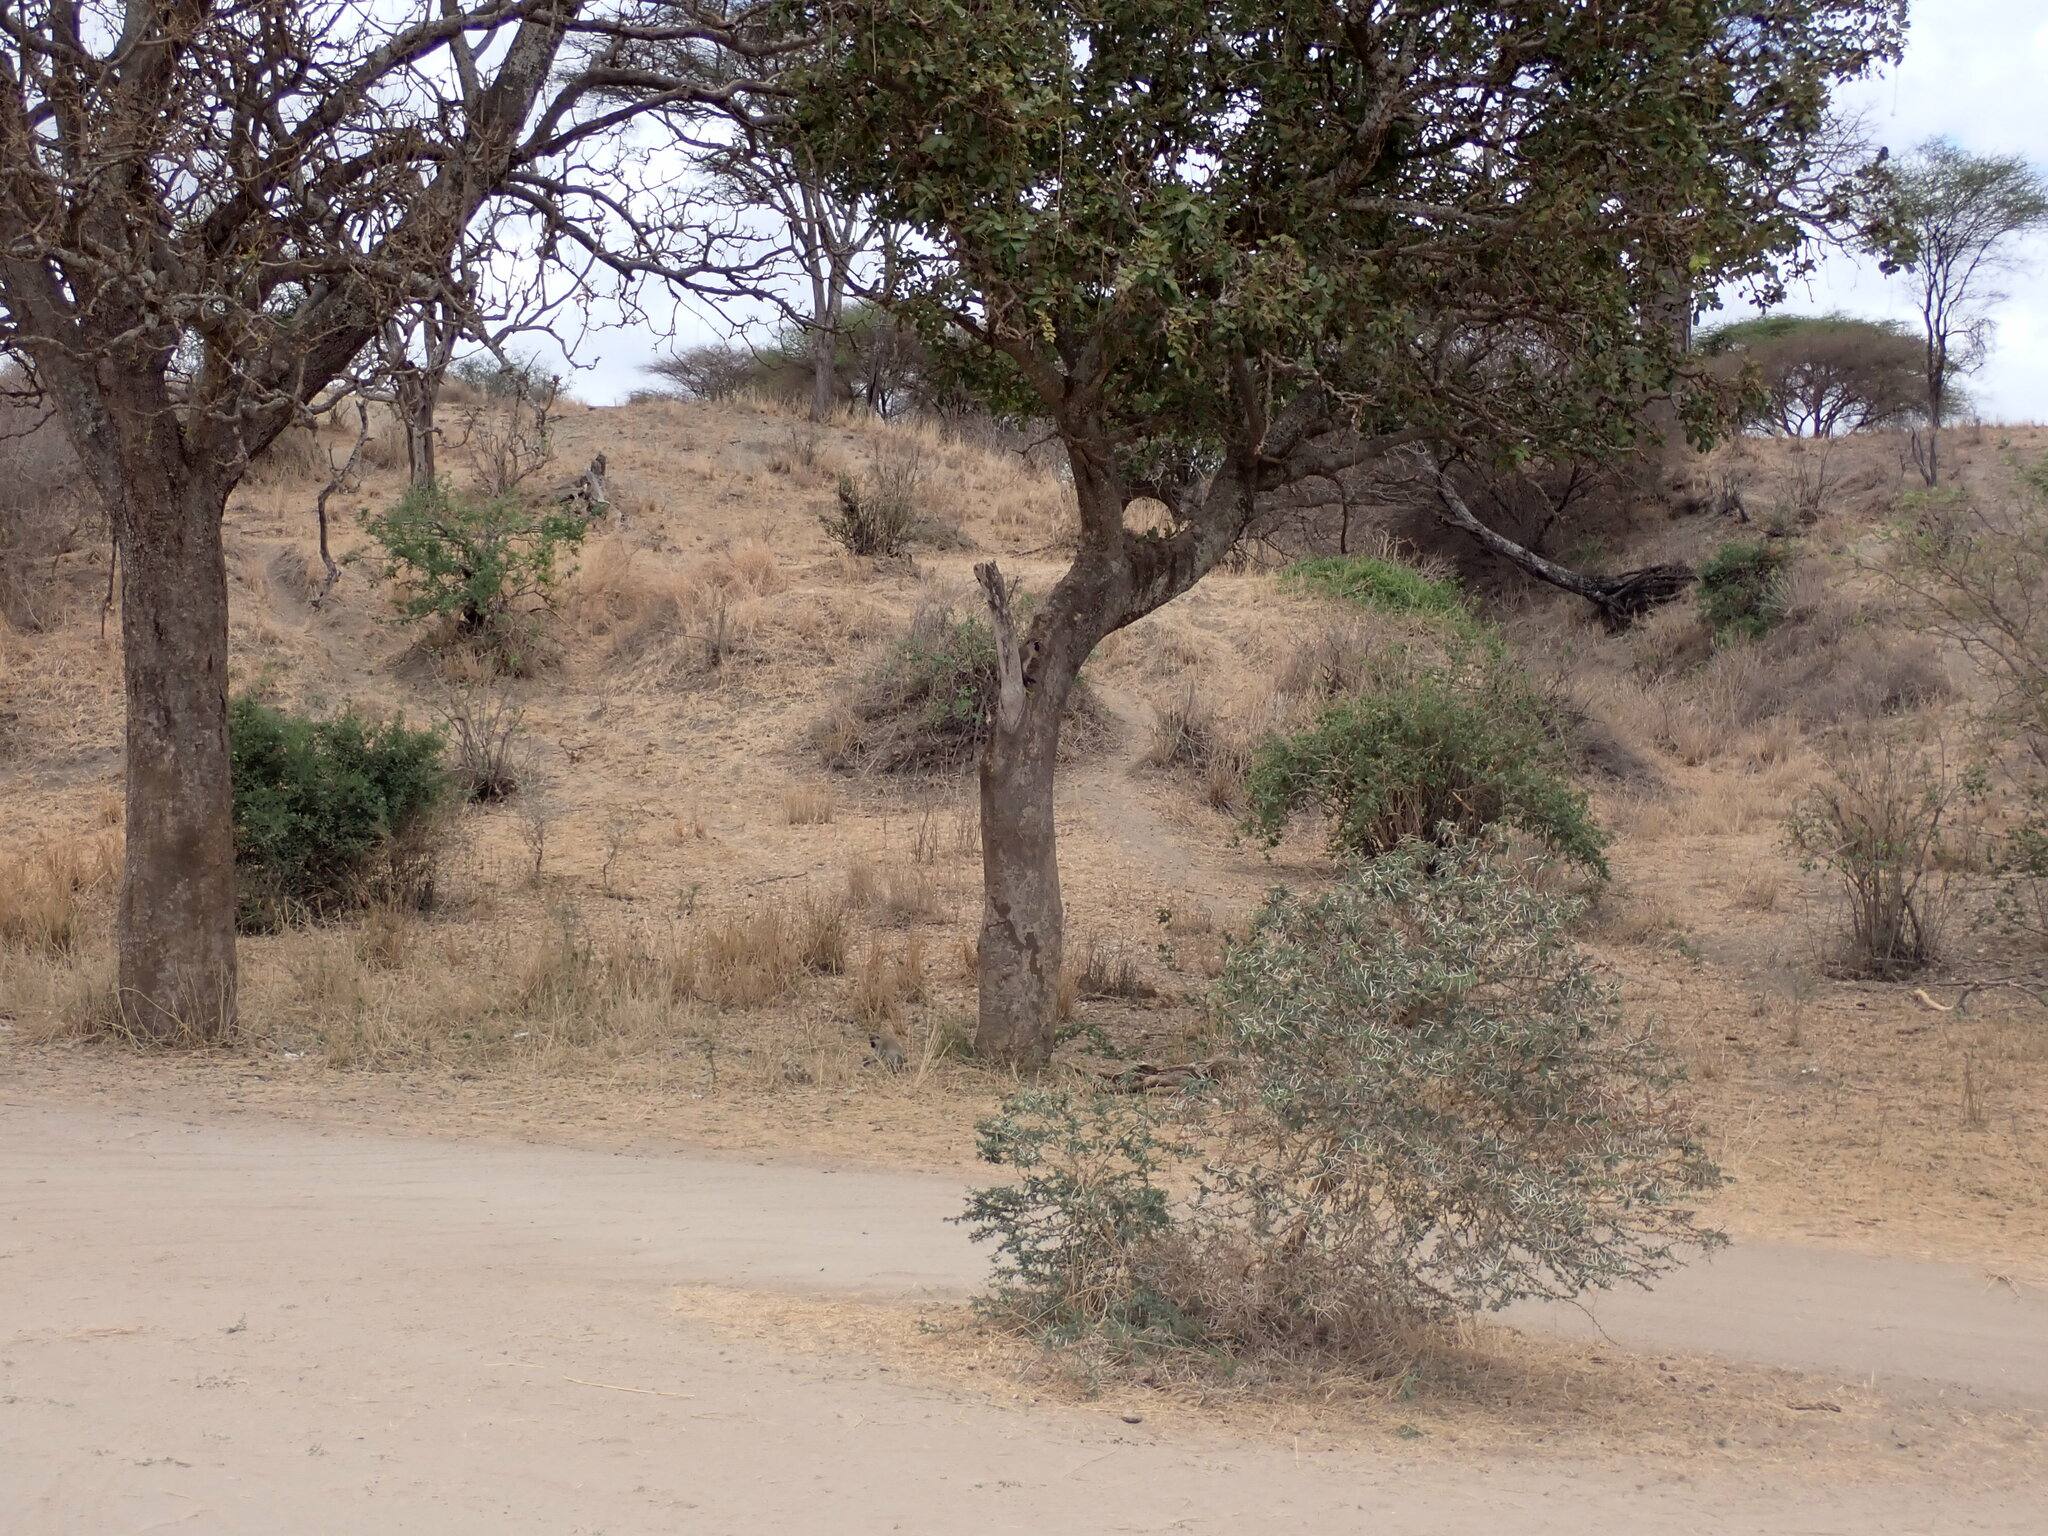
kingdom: Animalia
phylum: Chordata
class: Mammalia
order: Primates
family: Cercopithecidae
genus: Chlorocebus
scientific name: Chlorocebus pygerythrus
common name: Vervet monkey
